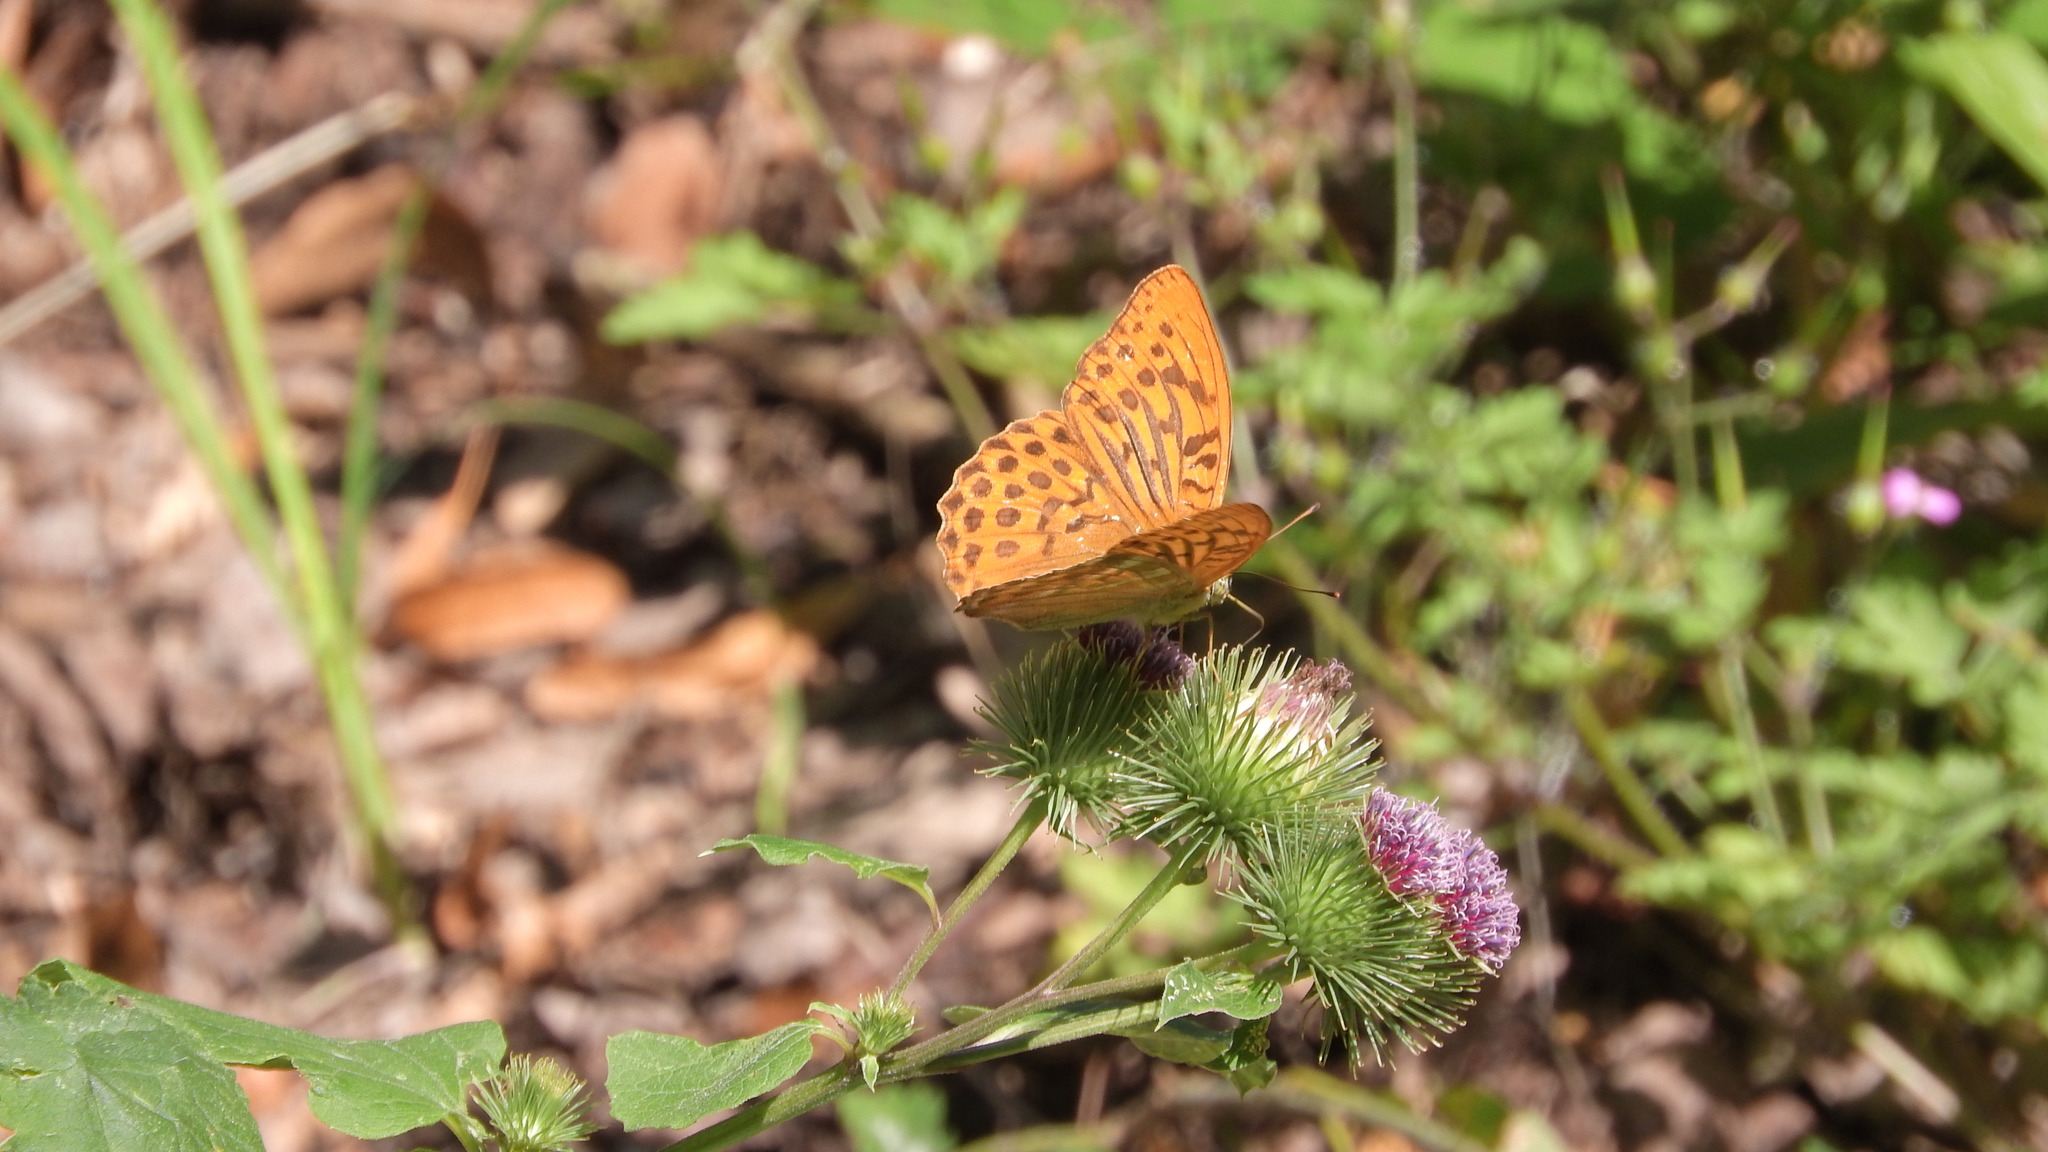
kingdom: Animalia
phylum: Arthropoda
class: Insecta
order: Lepidoptera
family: Nymphalidae
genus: Argynnis
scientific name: Argynnis paphia
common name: Silver-washed fritillary
